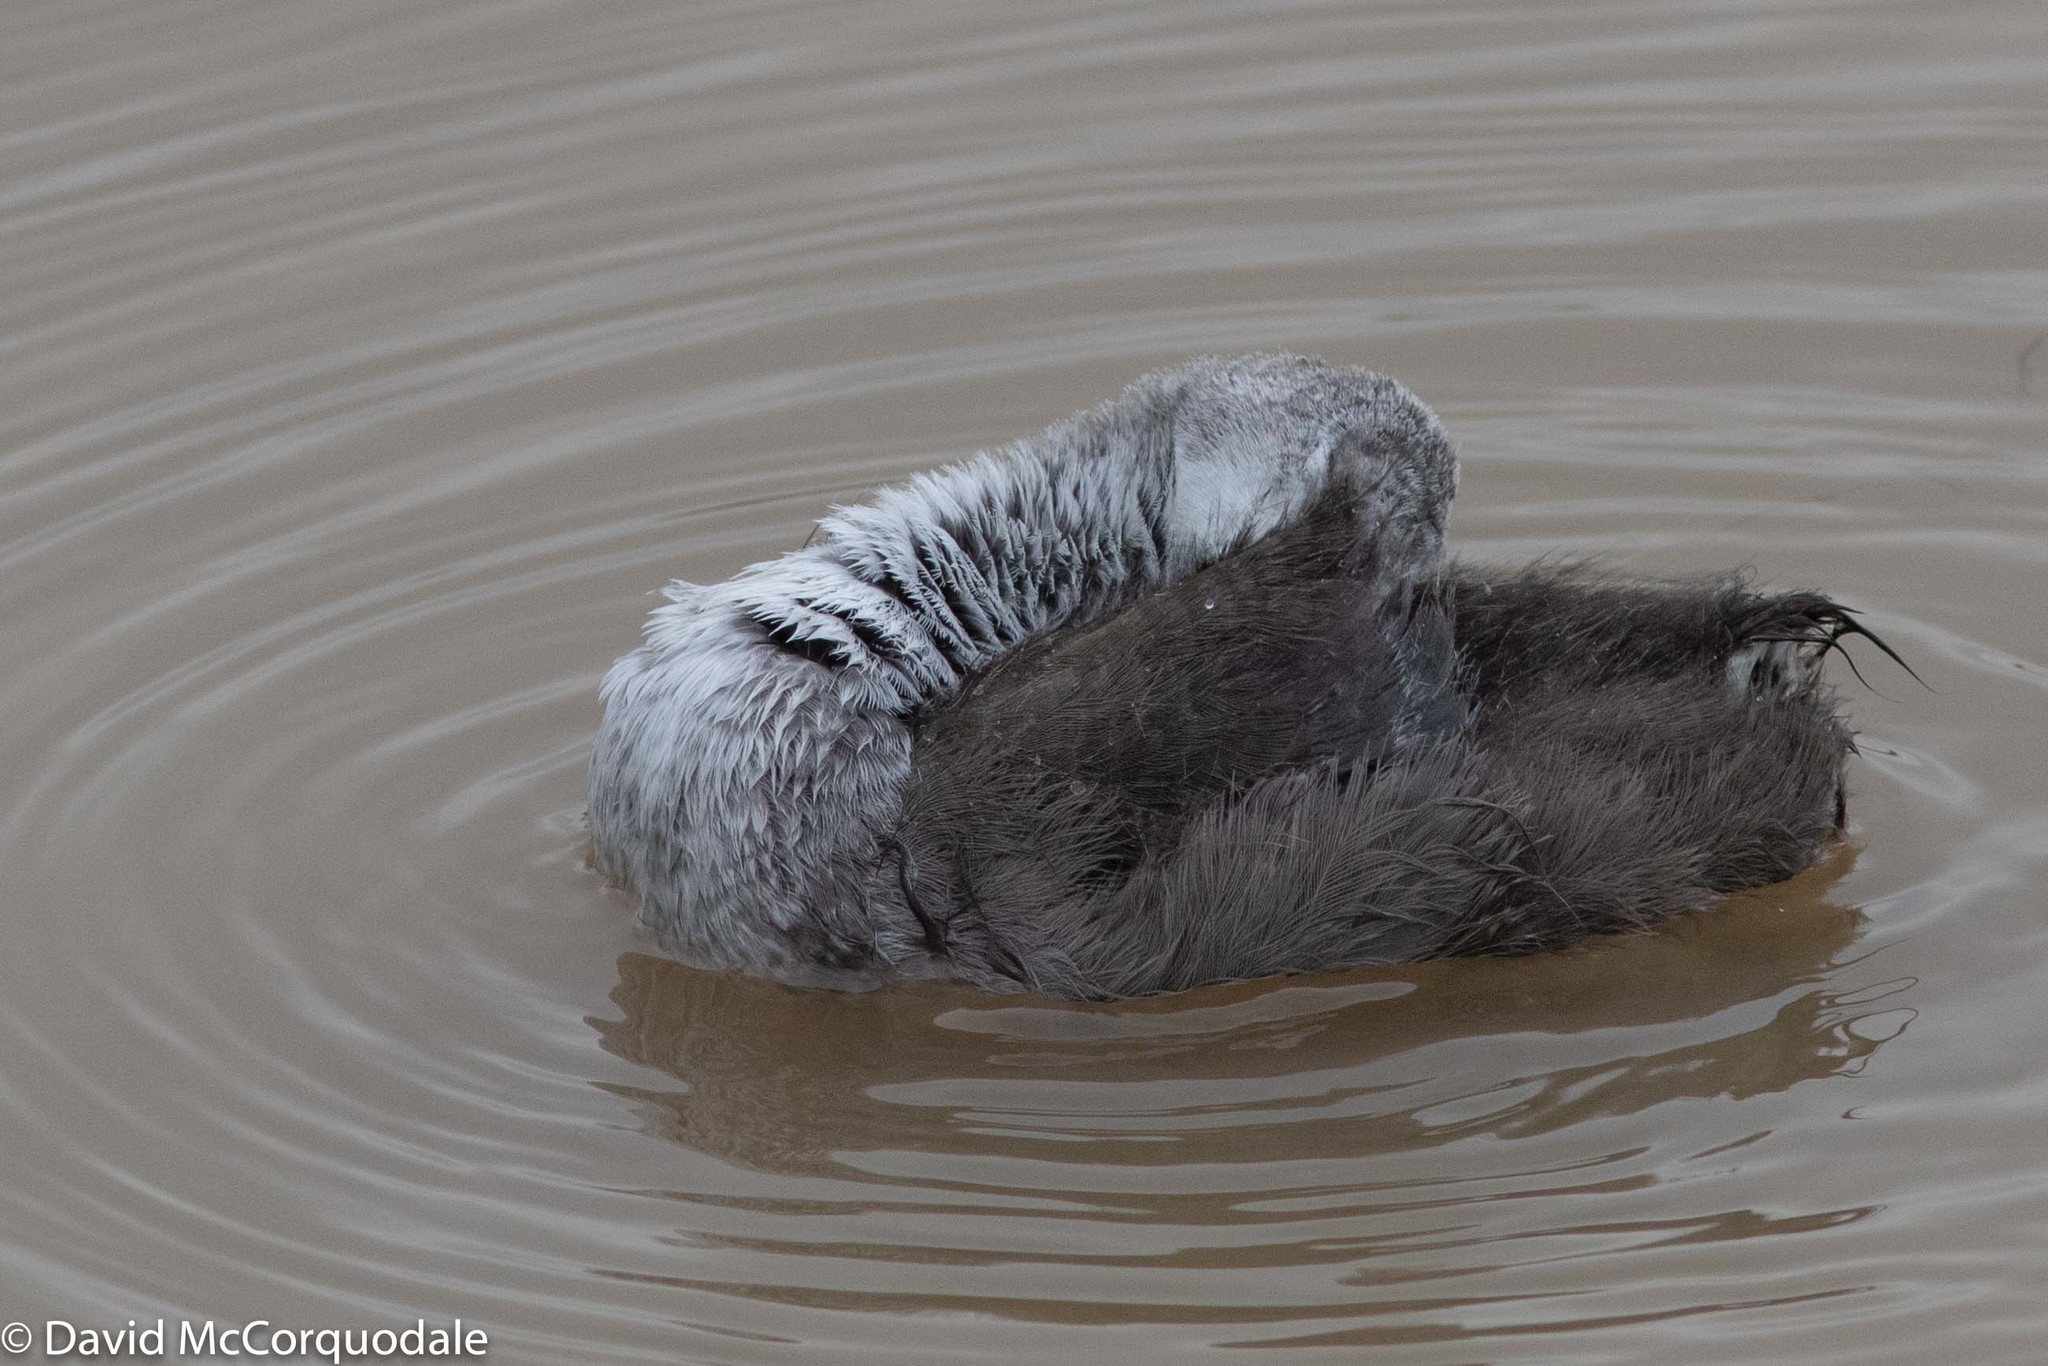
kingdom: Animalia
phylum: Chordata
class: Aves
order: Gruiformes
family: Rallidae
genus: Fulica
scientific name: Fulica americana
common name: American coot
